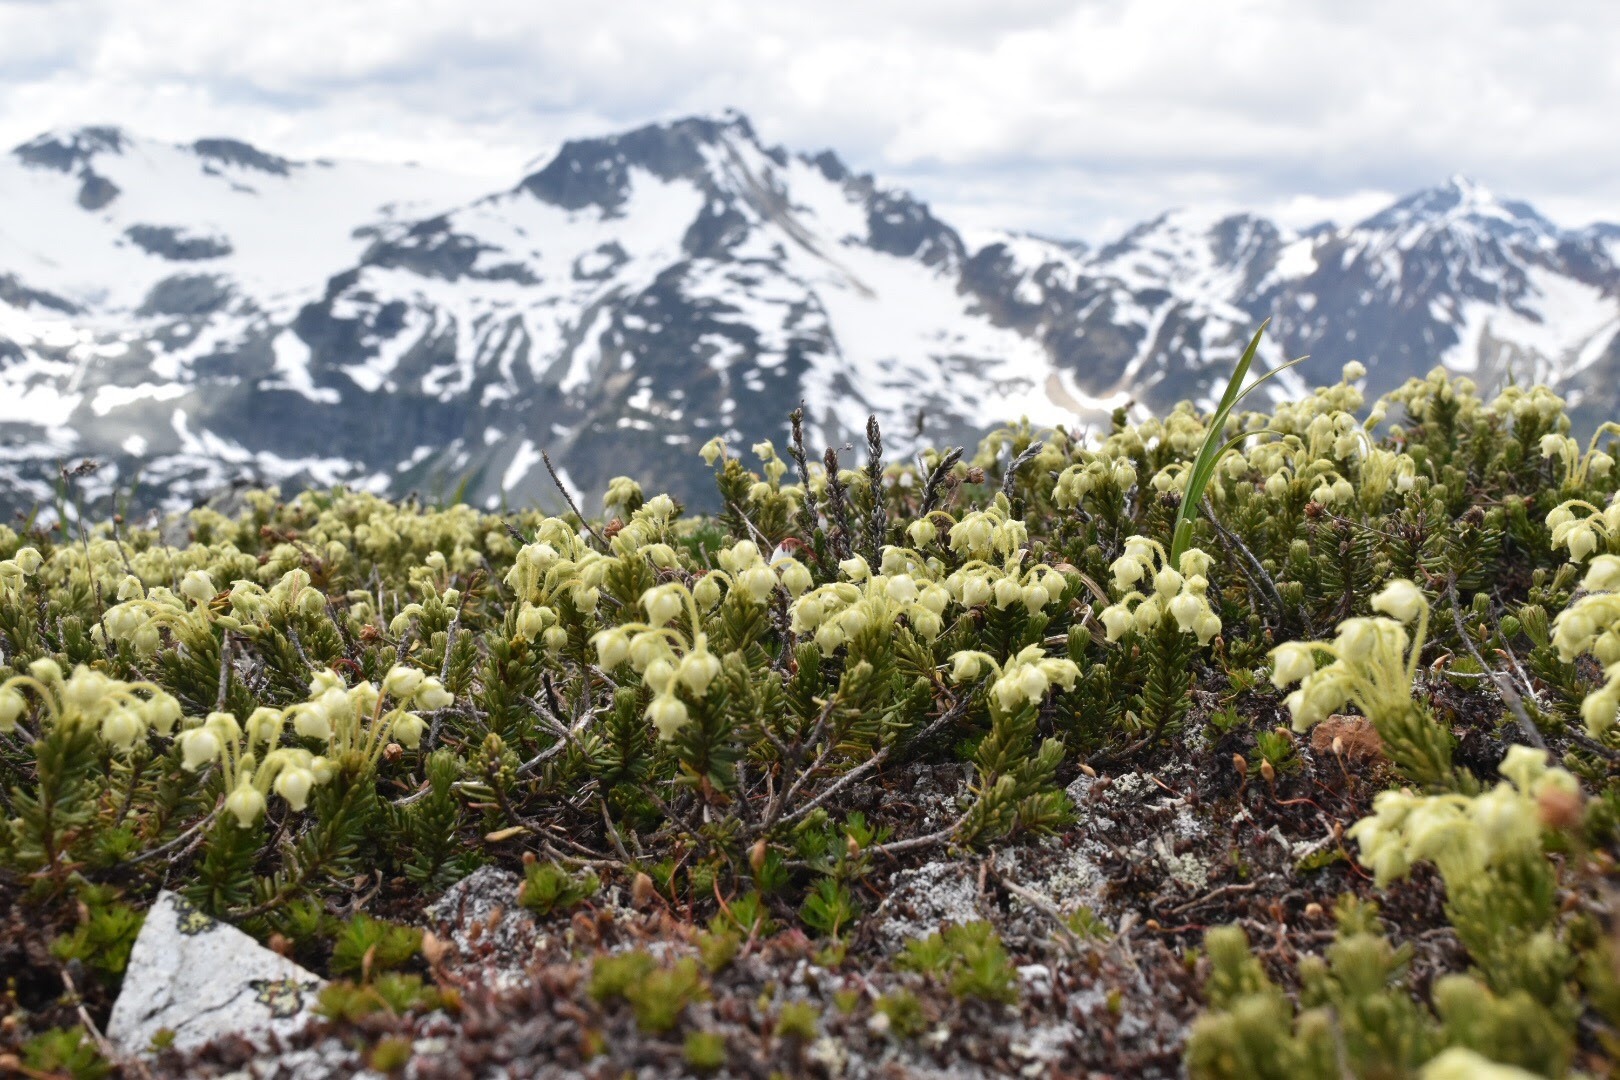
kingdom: Plantae
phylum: Tracheophyta
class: Magnoliopsida
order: Ericales
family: Ericaceae
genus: Phyllodoce
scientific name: Phyllodoce glanduliflora
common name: Cream mountain heather
